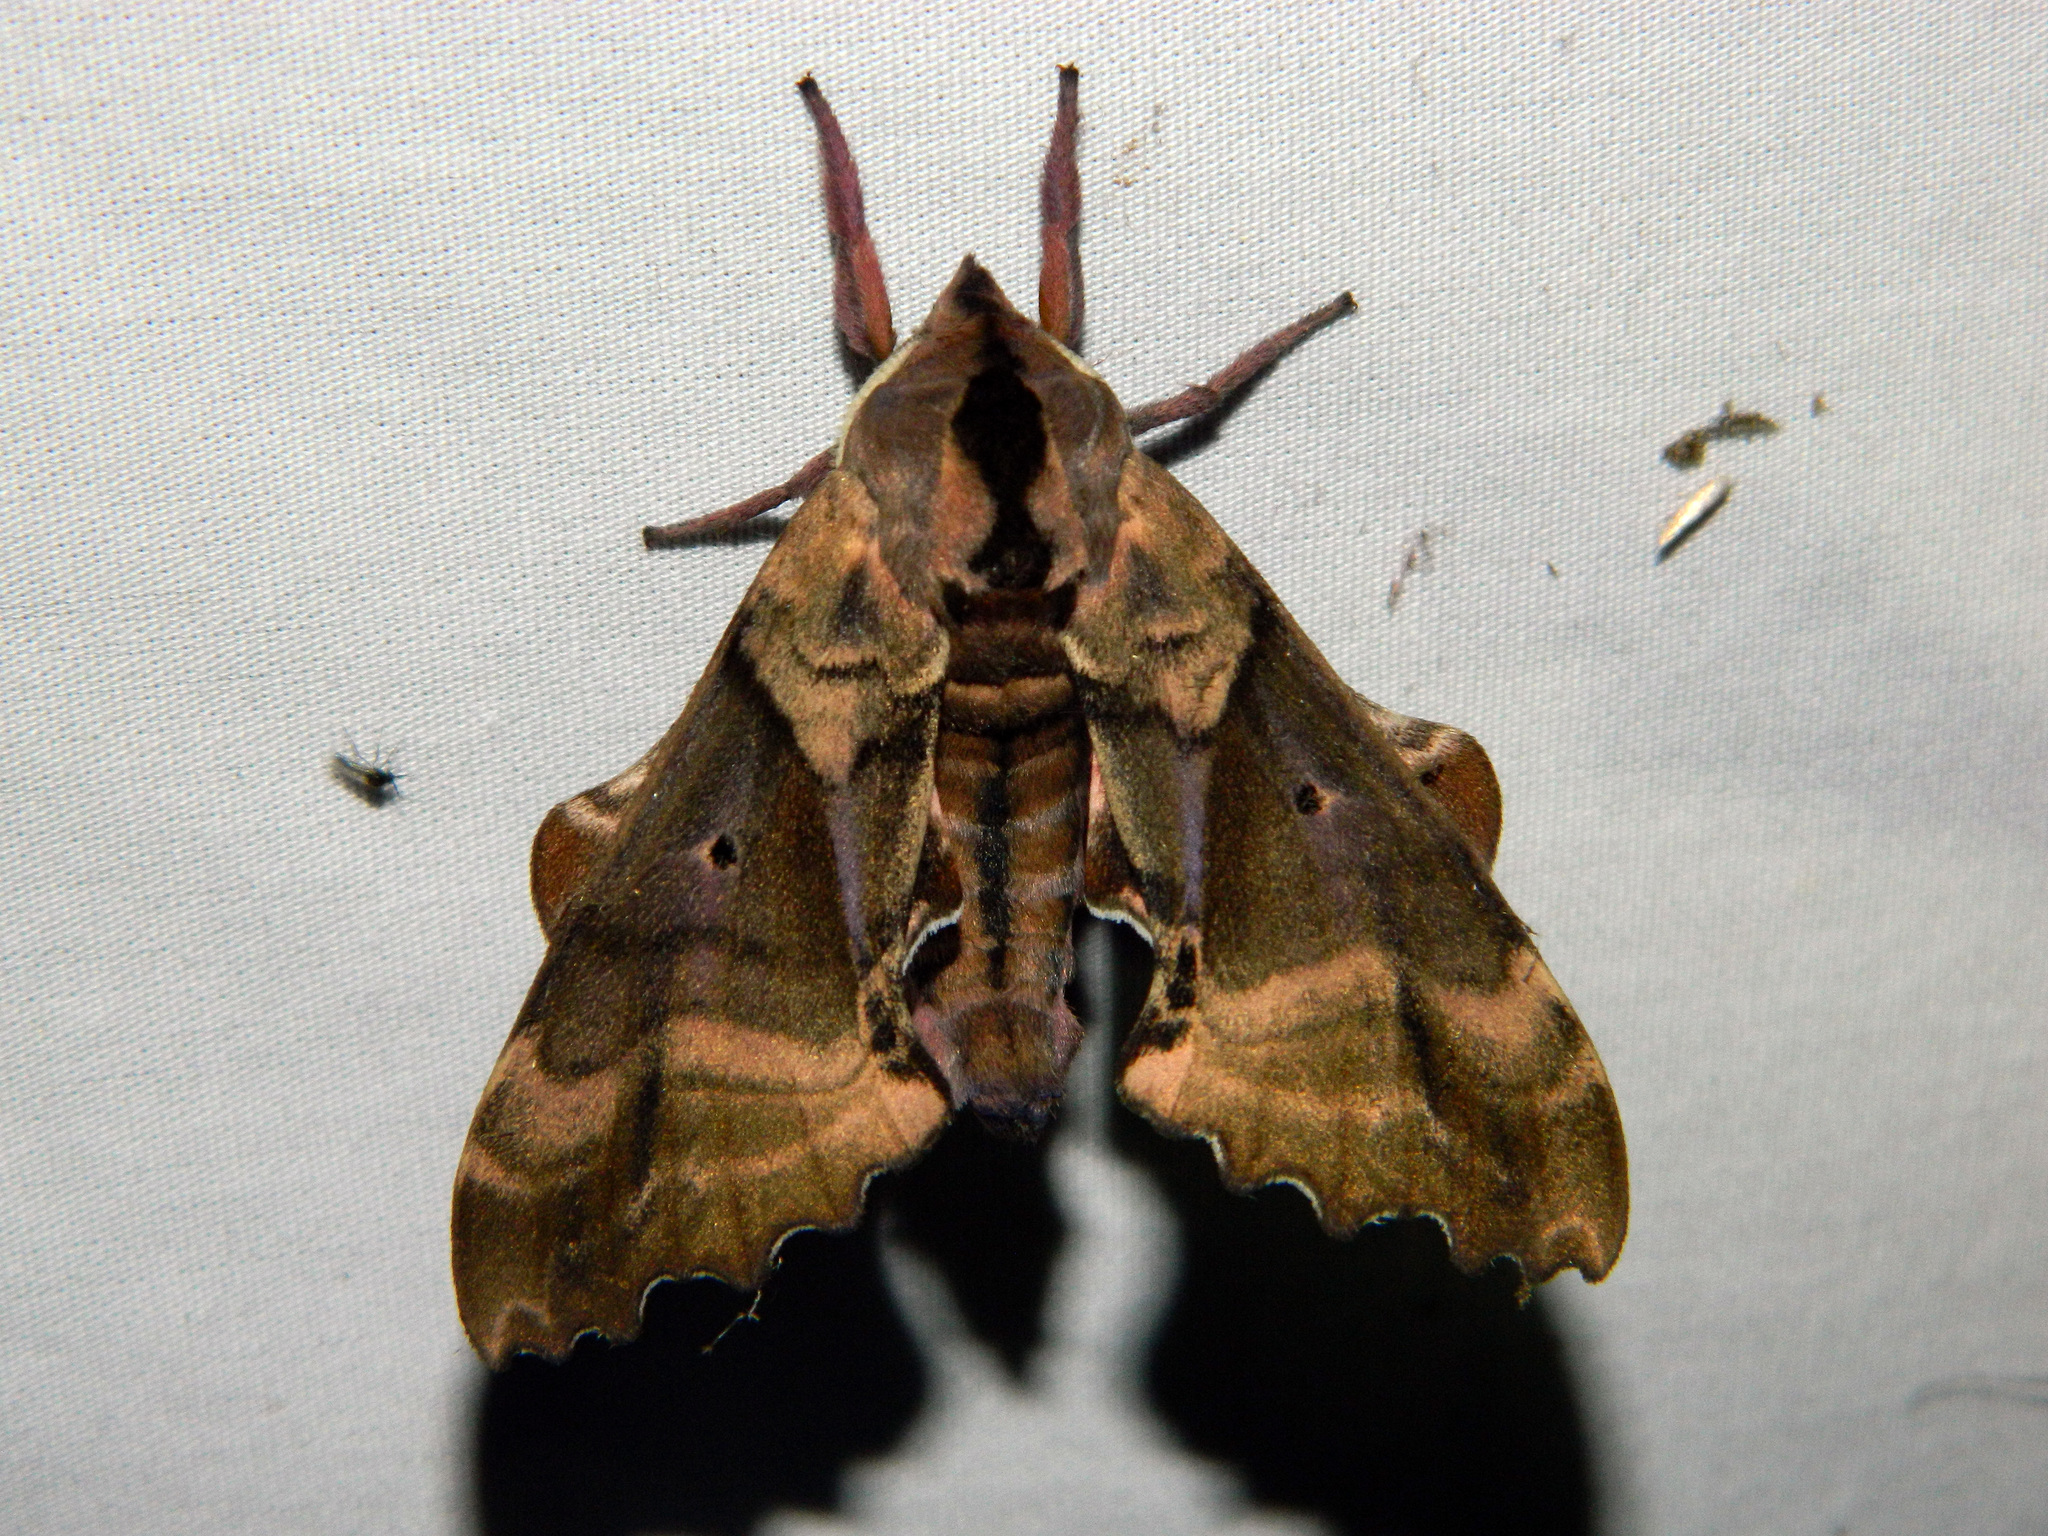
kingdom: Animalia
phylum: Arthropoda
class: Insecta
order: Lepidoptera
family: Sphingidae
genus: Paonias
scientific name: Paonias excaecata
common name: Blind-eyed sphinx
